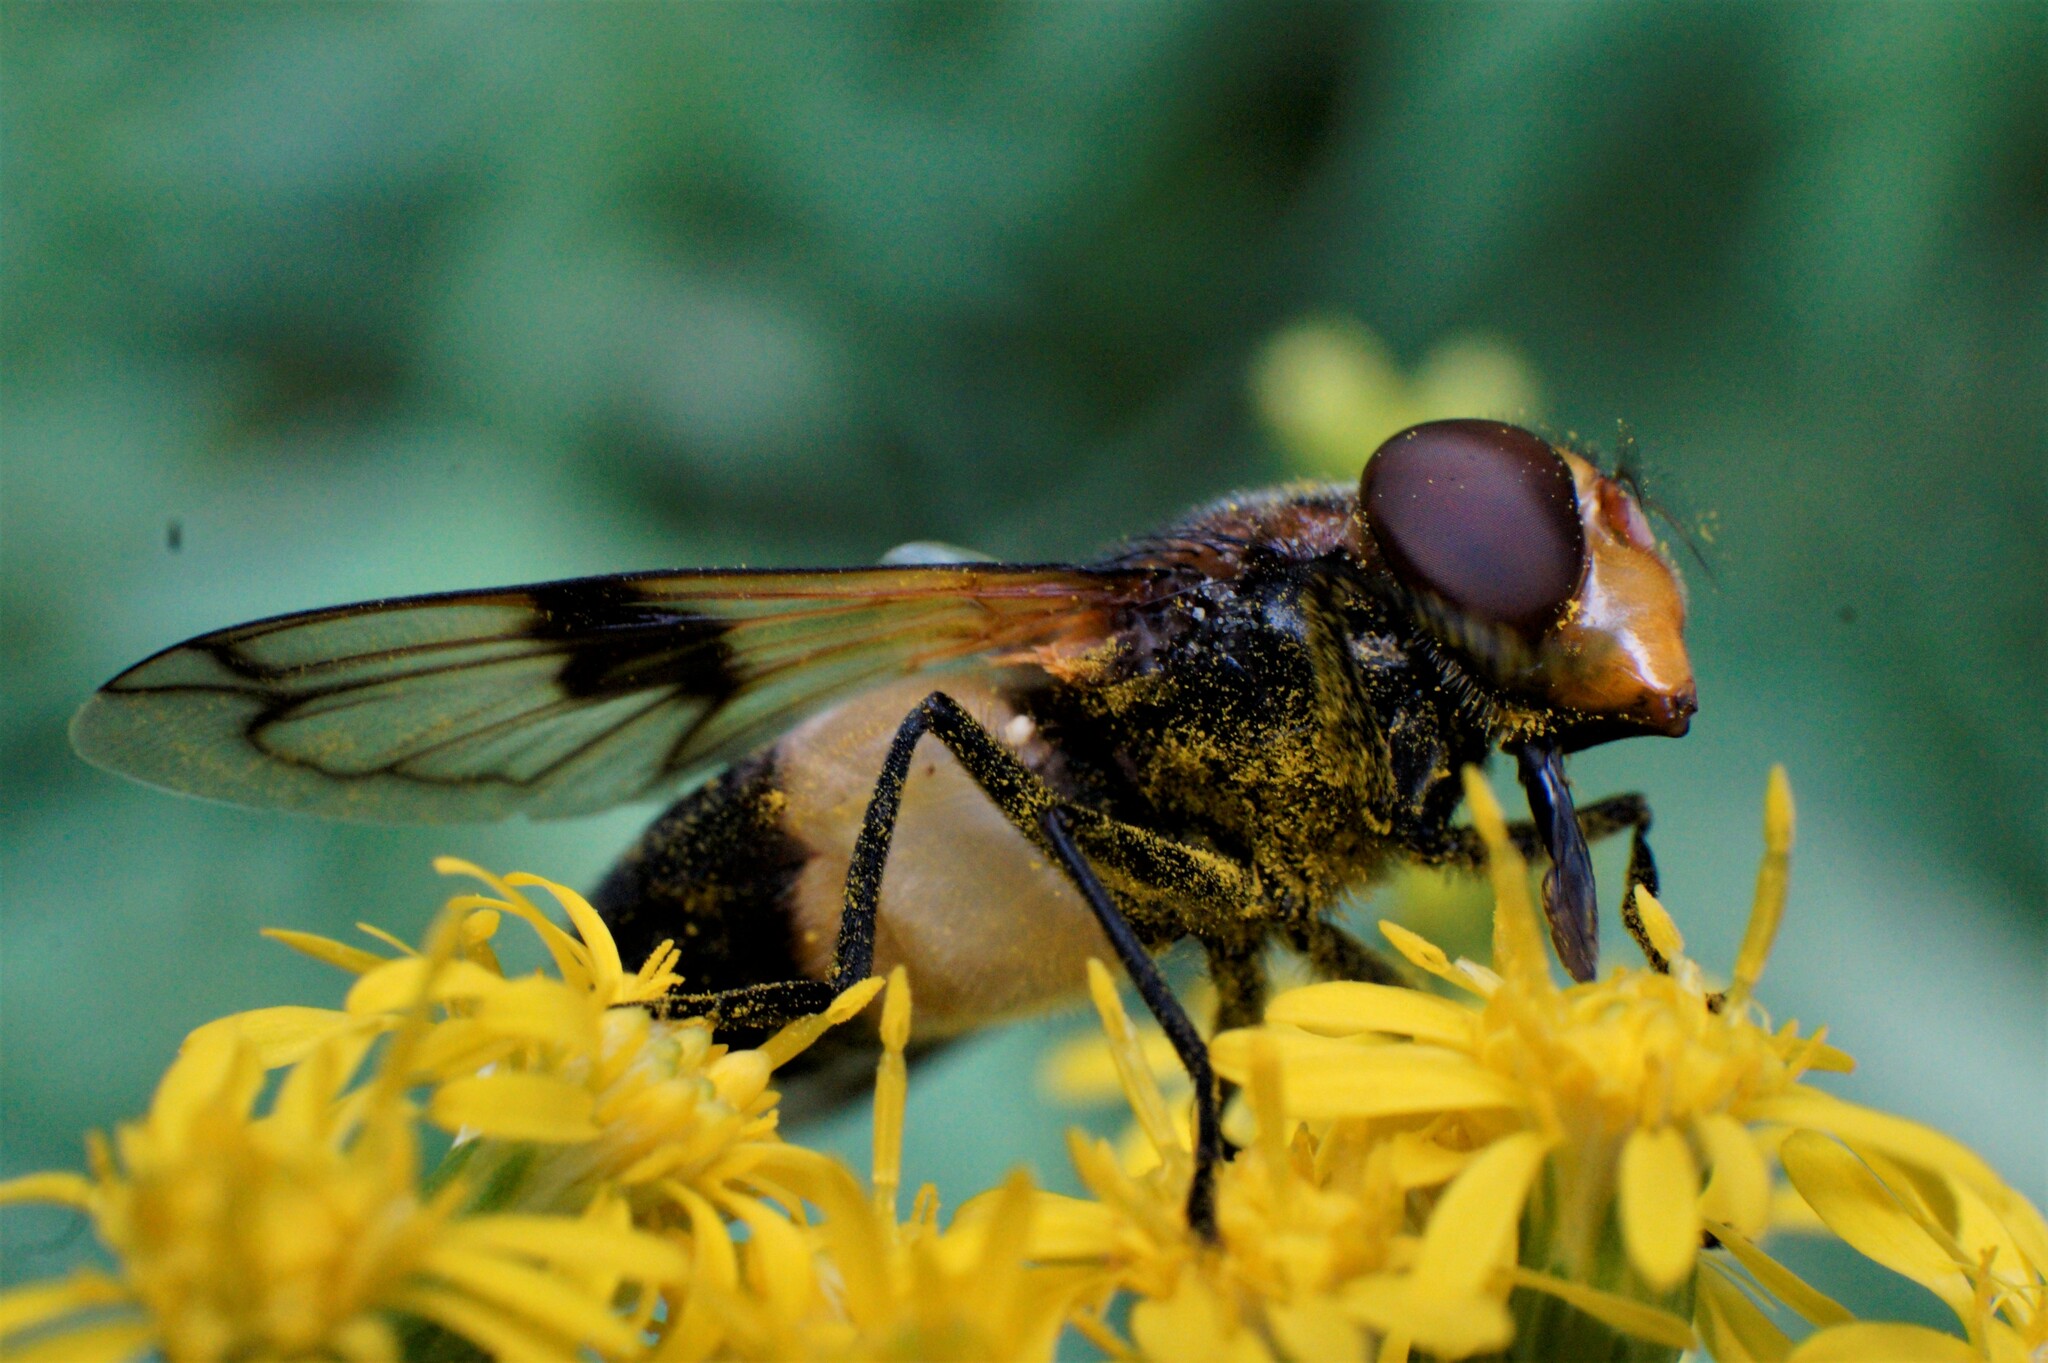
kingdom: Animalia
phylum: Arthropoda
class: Insecta
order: Diptera
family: Syrphidae
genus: Volucella
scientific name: Volucella pellucens
